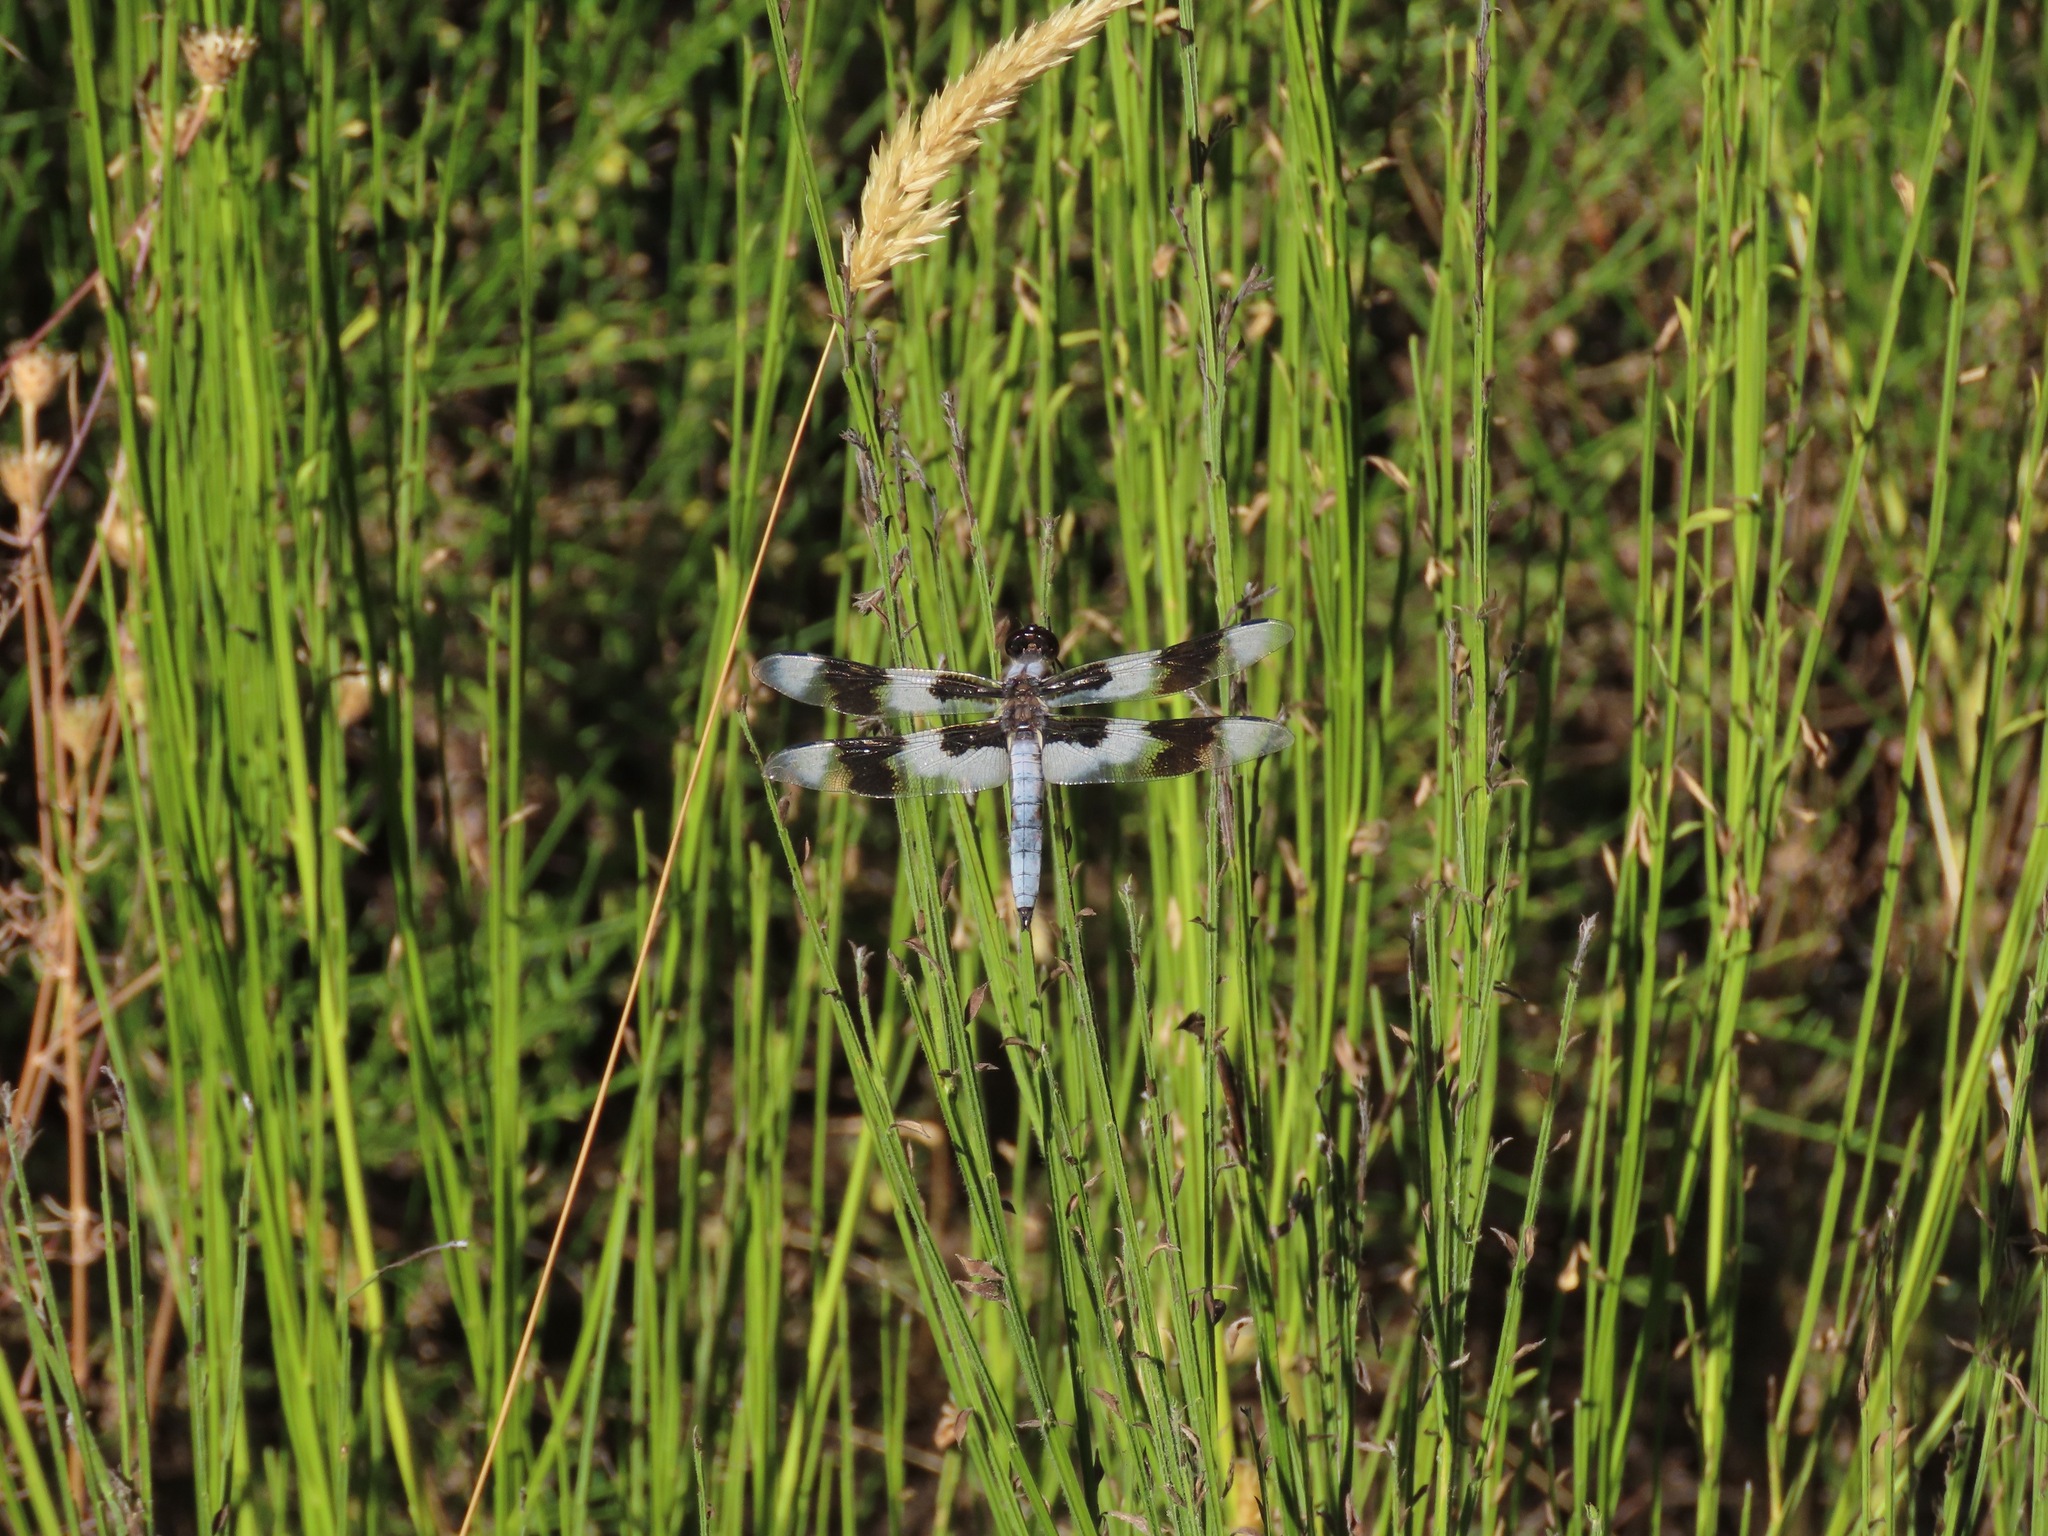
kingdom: Animalia
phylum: Arthropoda
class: Insecta
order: Odonata
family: Libellulidae
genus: Libellula
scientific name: Libellula forensis
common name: Eight-spotted skimmer
